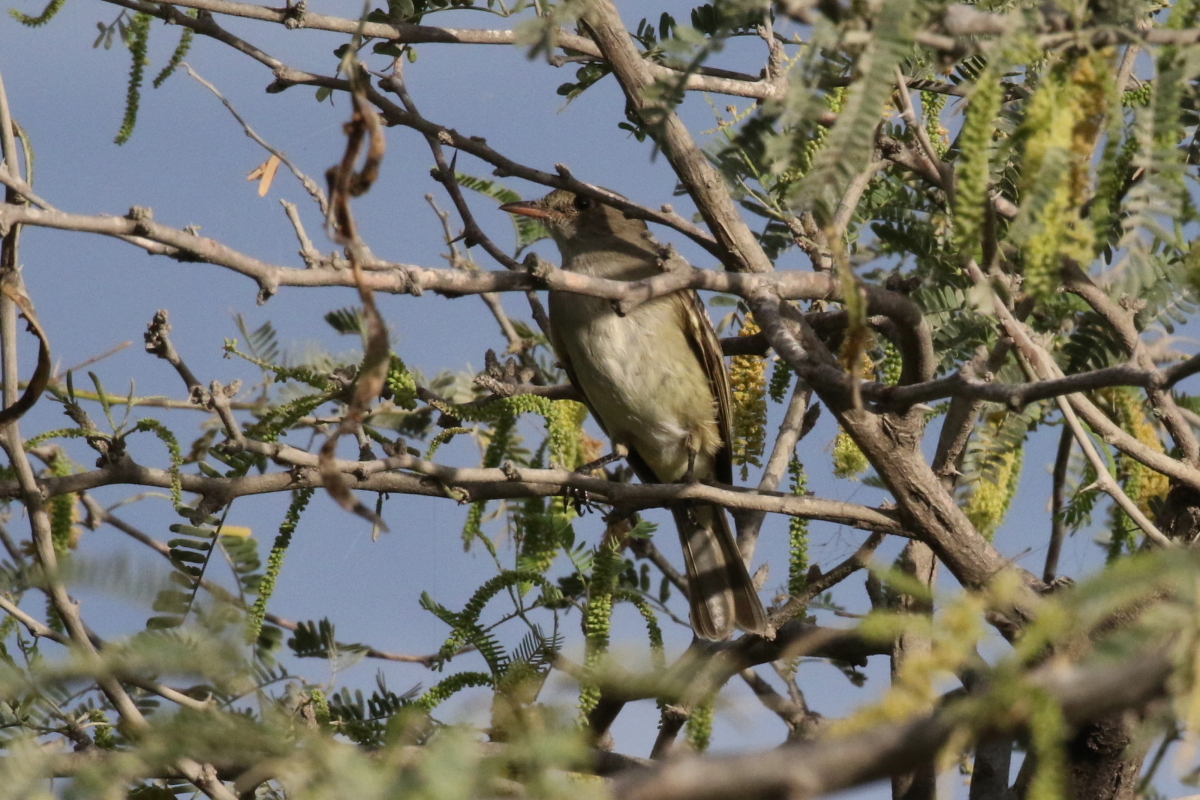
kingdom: Animalia
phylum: Chordata
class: Aves
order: Passeriformes
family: Tyrannidae
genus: Elaenia
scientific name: Elaenia martinica
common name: Caribbean elaenia
